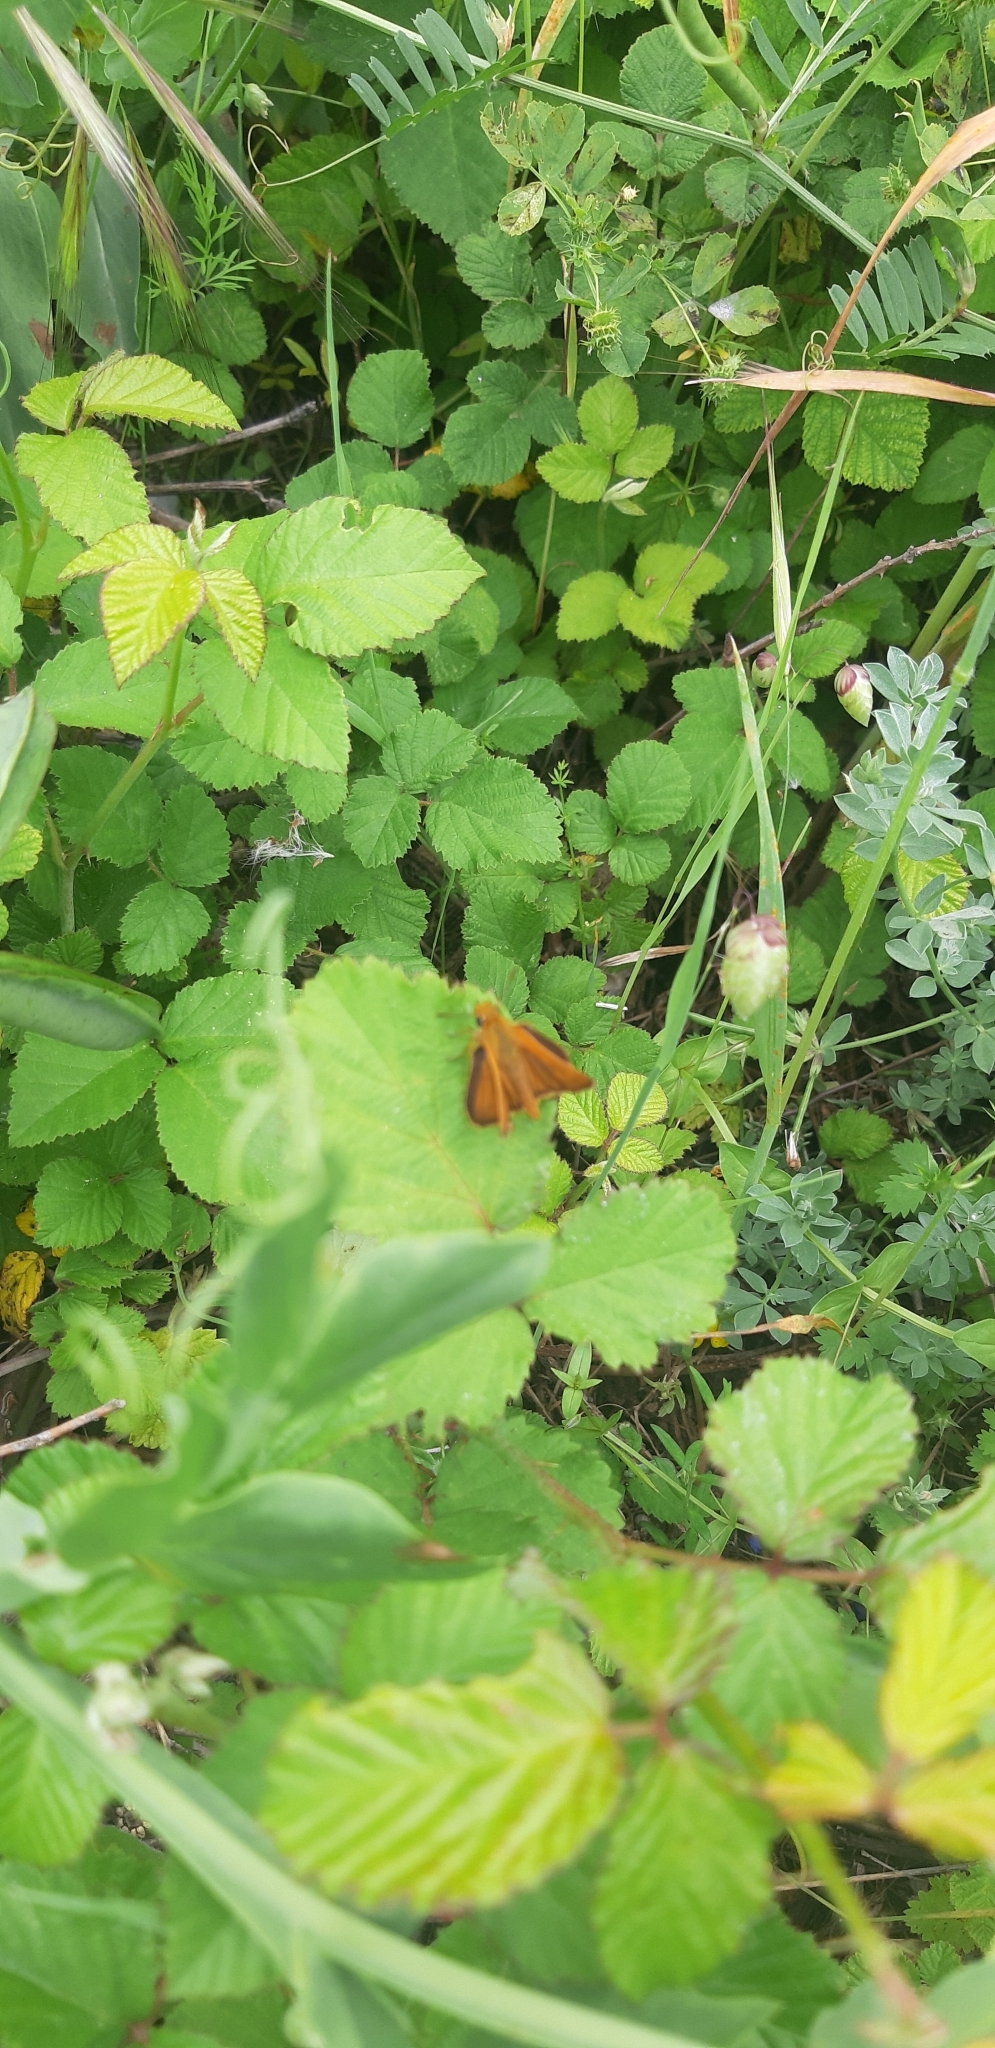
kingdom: Animalia
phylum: Arthropoda
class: Insecta
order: Lepidoptera
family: Hesperiidae
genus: Thymelicus
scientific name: Thymelicus acteon
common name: Lulworth skipper
